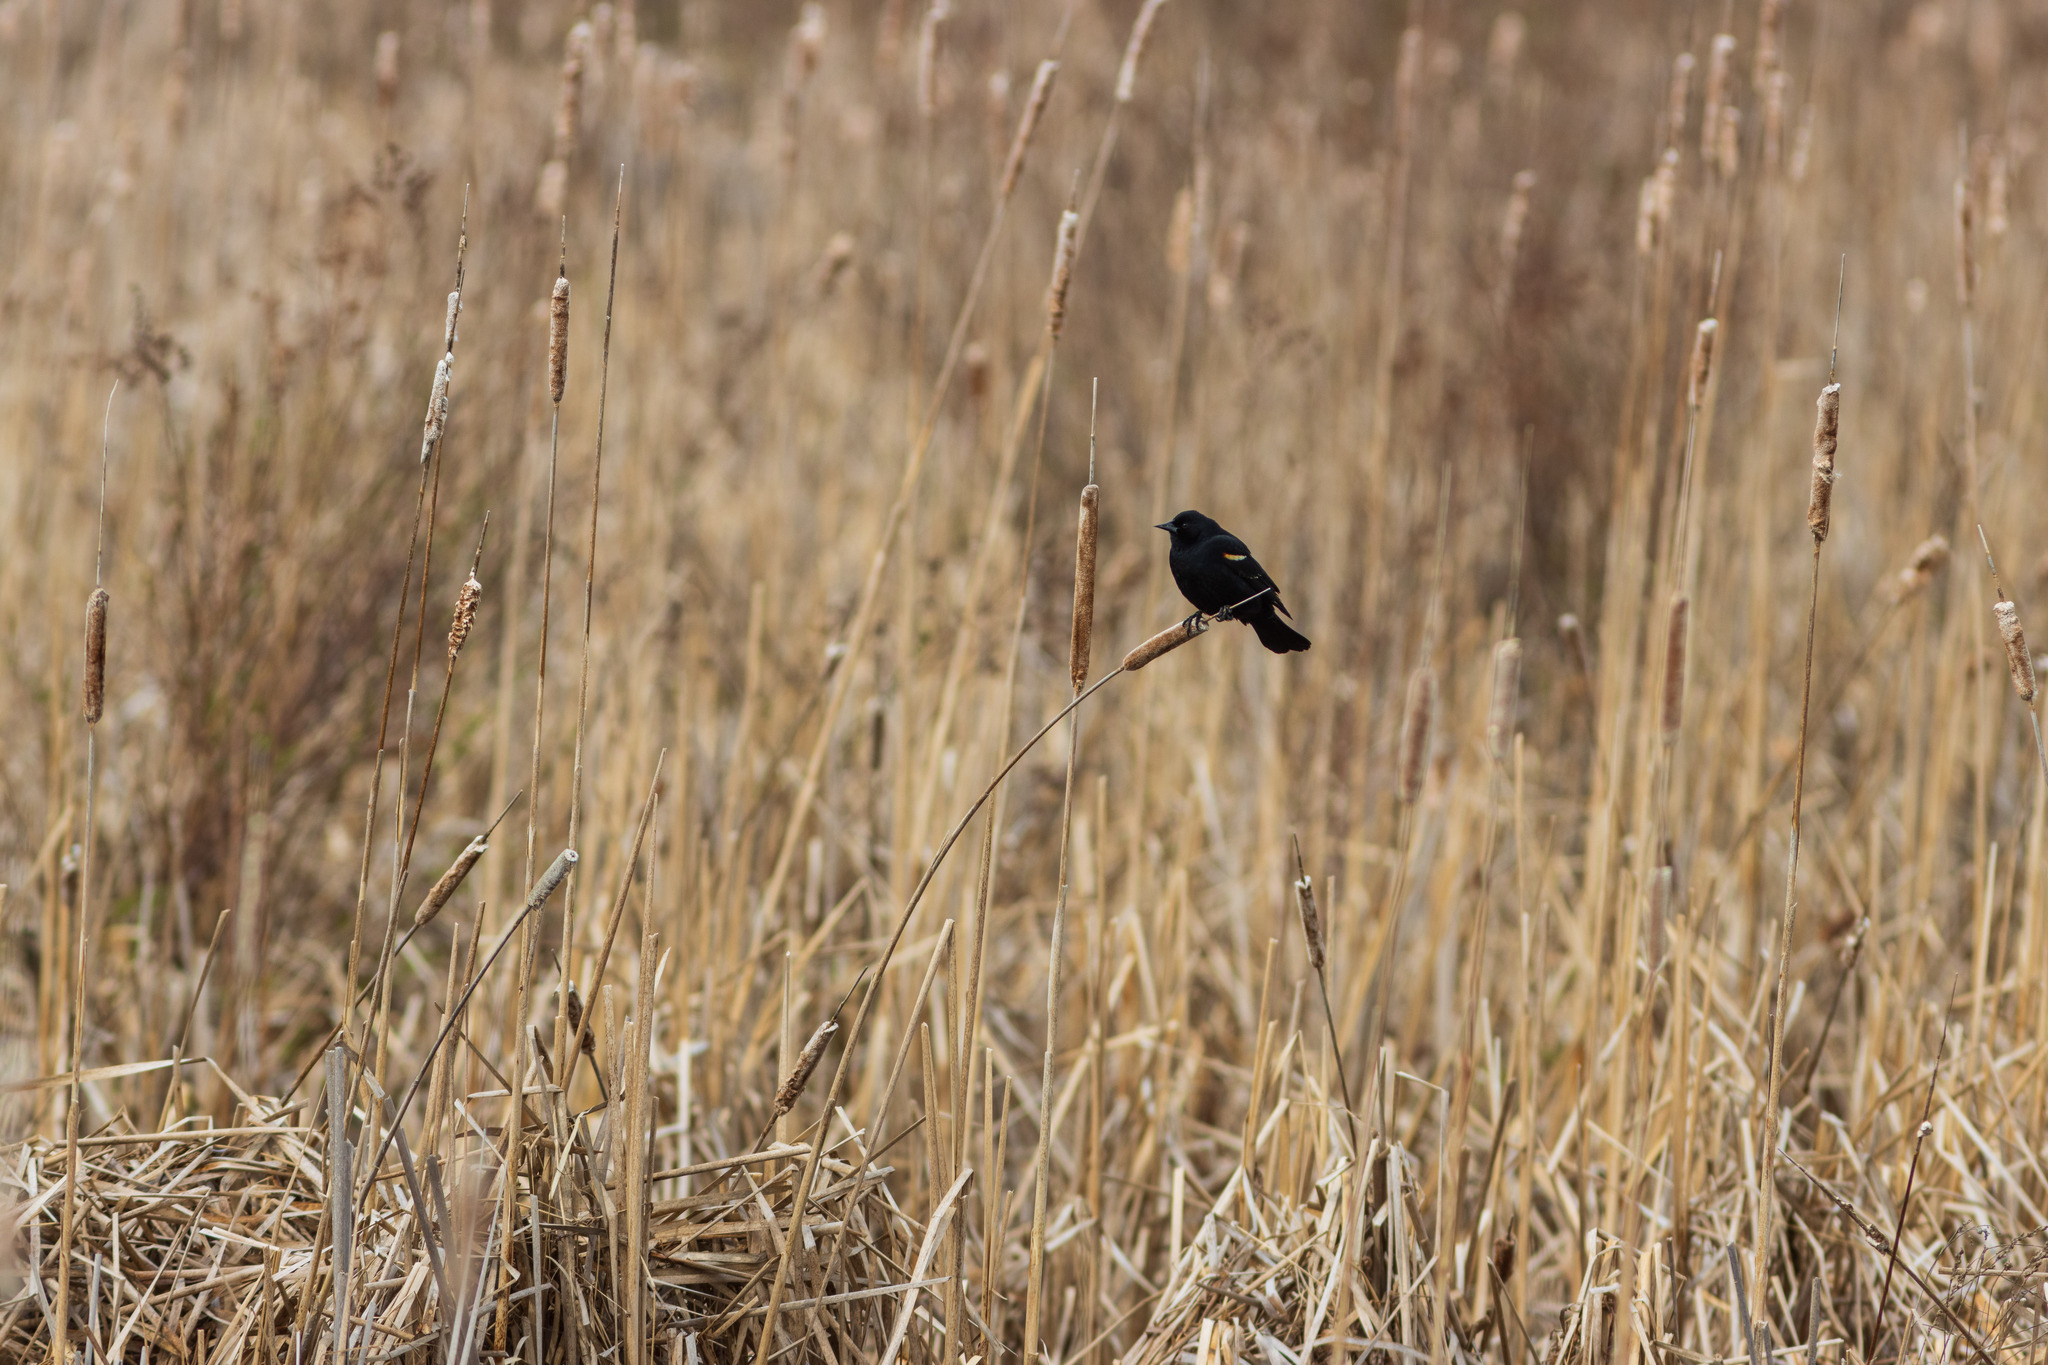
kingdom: Animalia
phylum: Chordata
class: Aves
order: Passeriformes
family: Icteridae
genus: Agelaius
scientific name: Agelaius phoeniceus
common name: Red-winged blackbird
